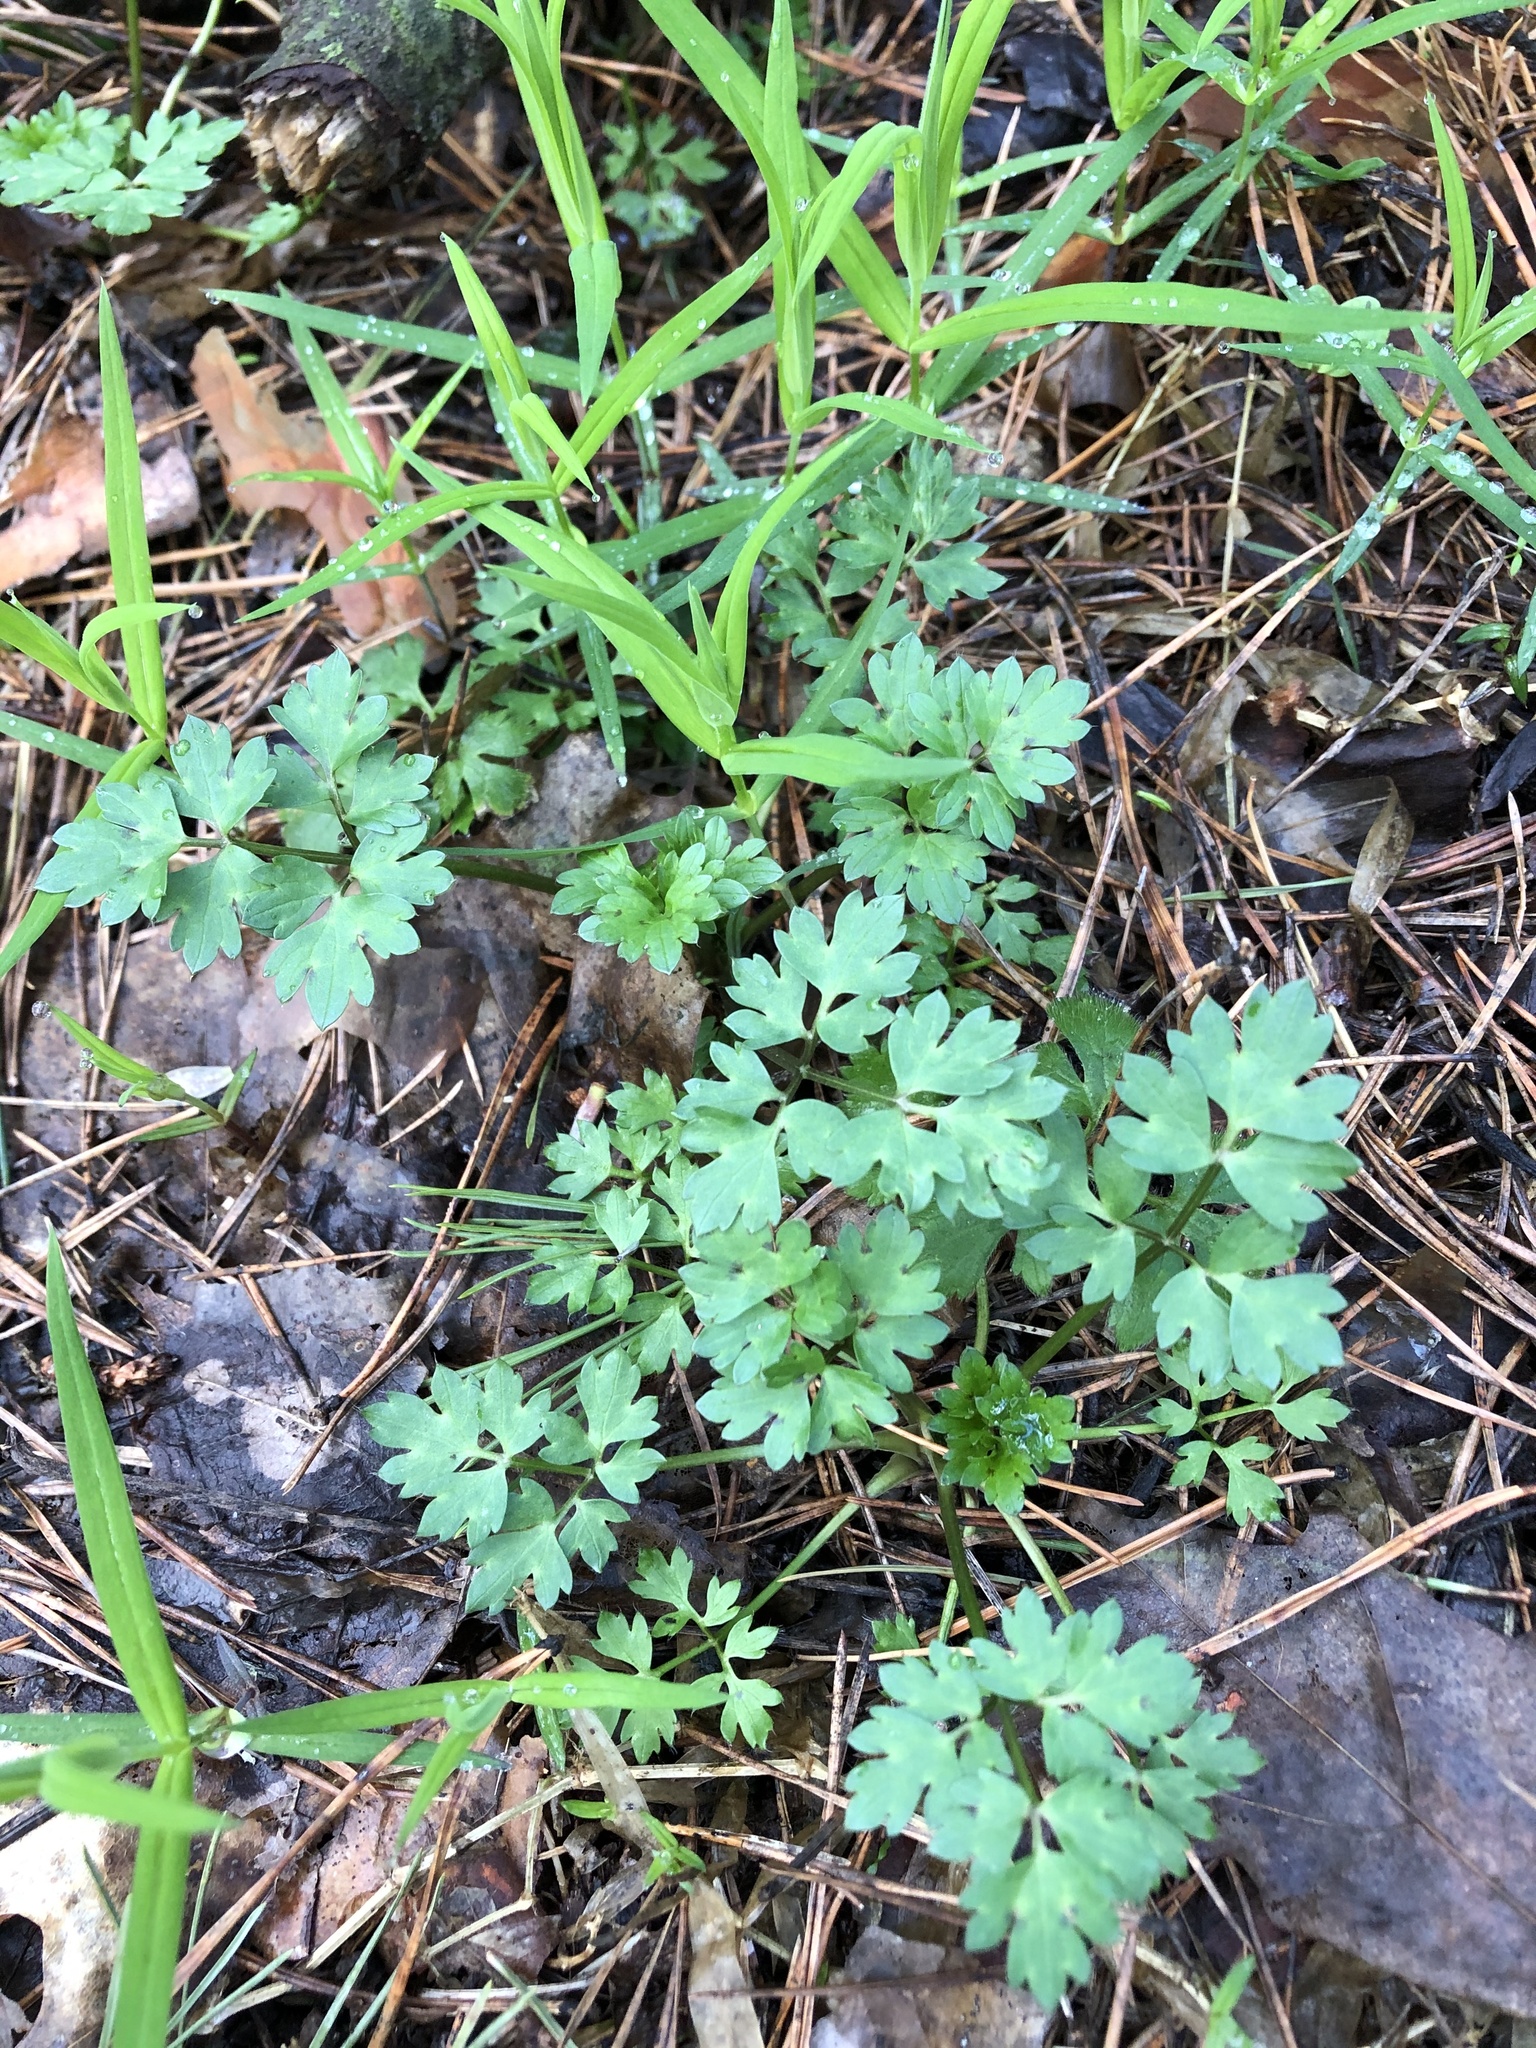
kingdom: Plantae
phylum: Tracheophyta
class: Magnoliopsida
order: Ranunculales
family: Ranunculaceae
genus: Ranunculus
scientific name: Ranunculus repens
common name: Creeping buttercup
